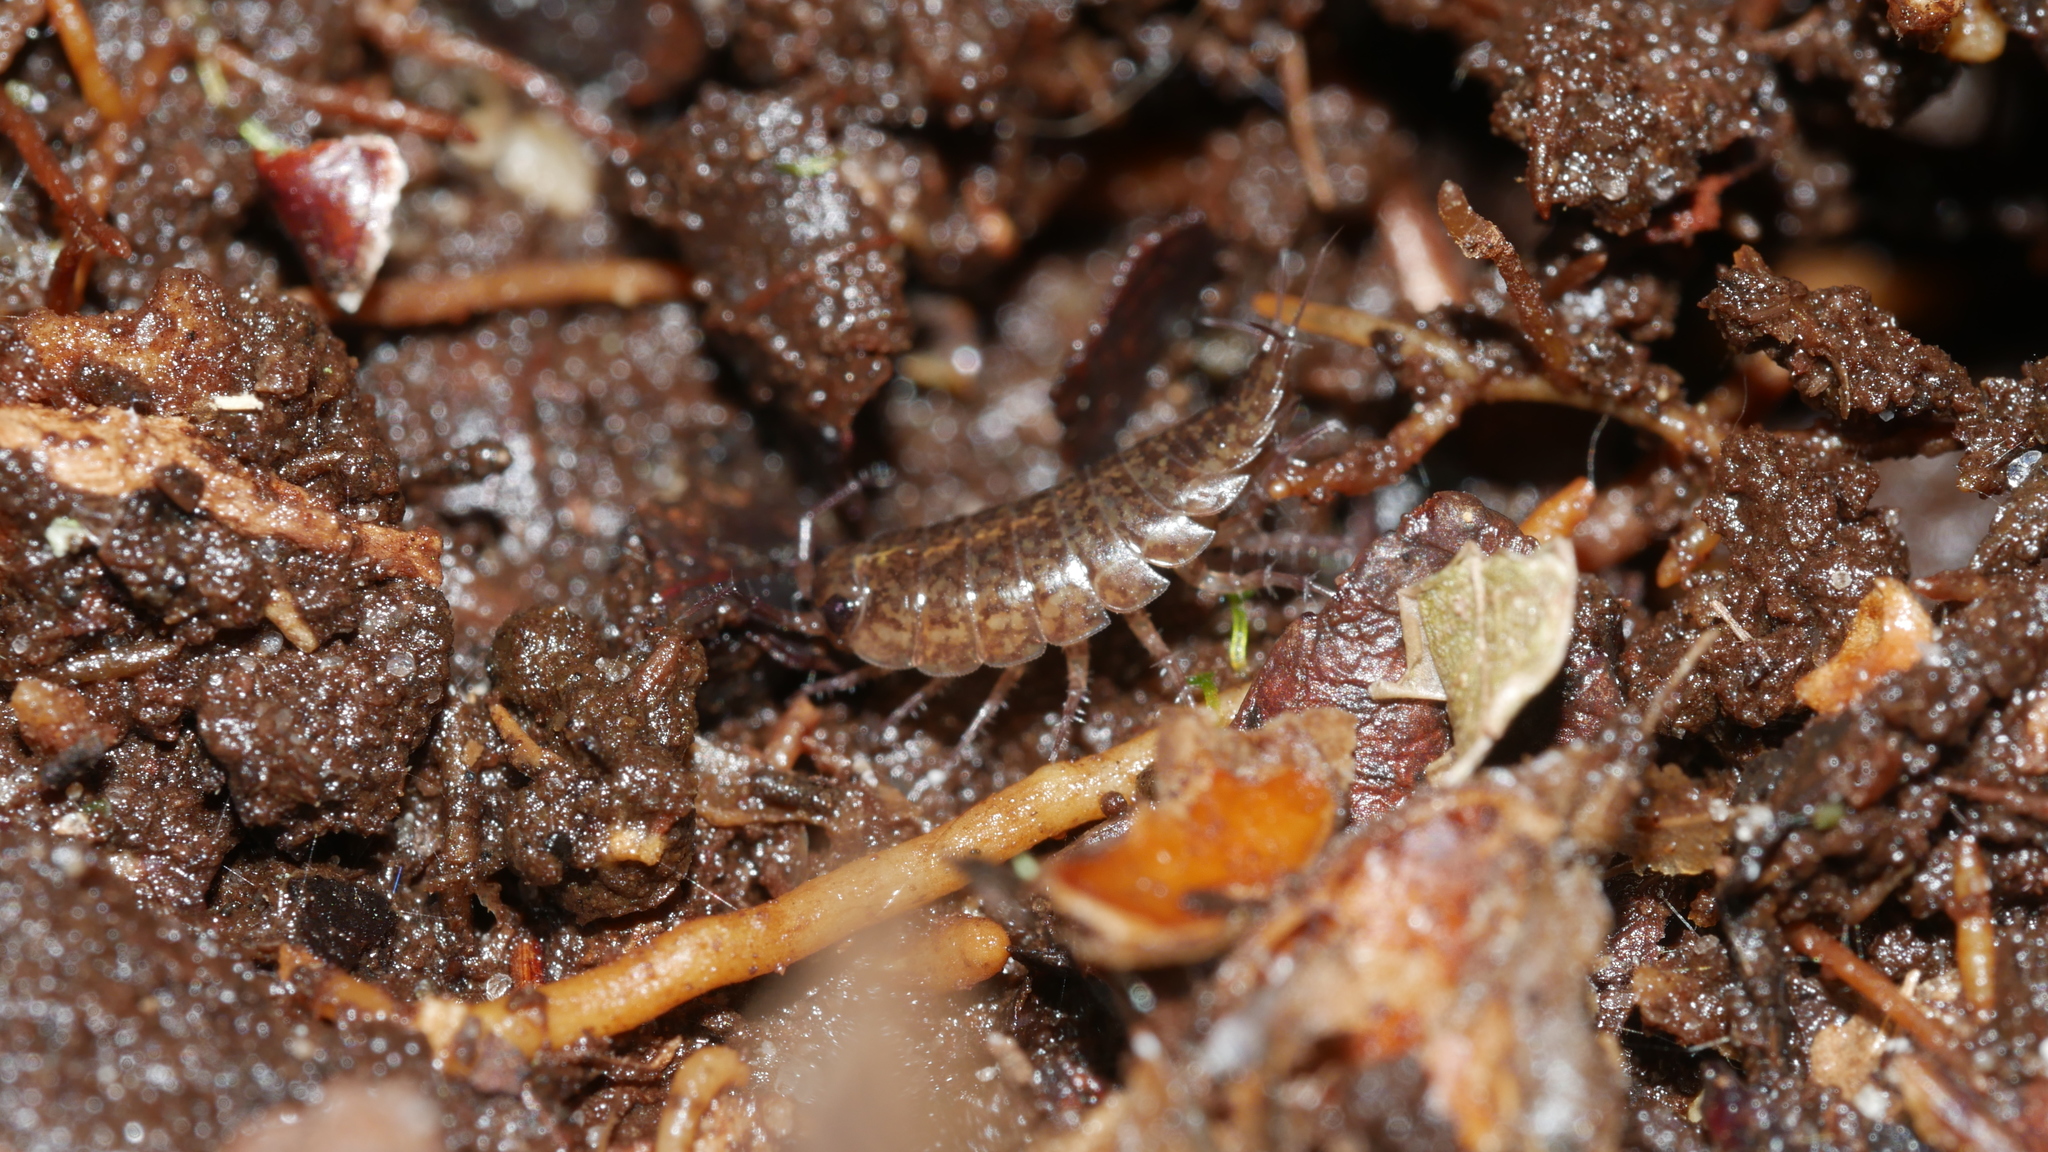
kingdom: Animalia
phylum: Arthropoda
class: Malacostraca
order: Isopoda
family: Ligiidae
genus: Ligidium
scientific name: Ligidium elrodii
